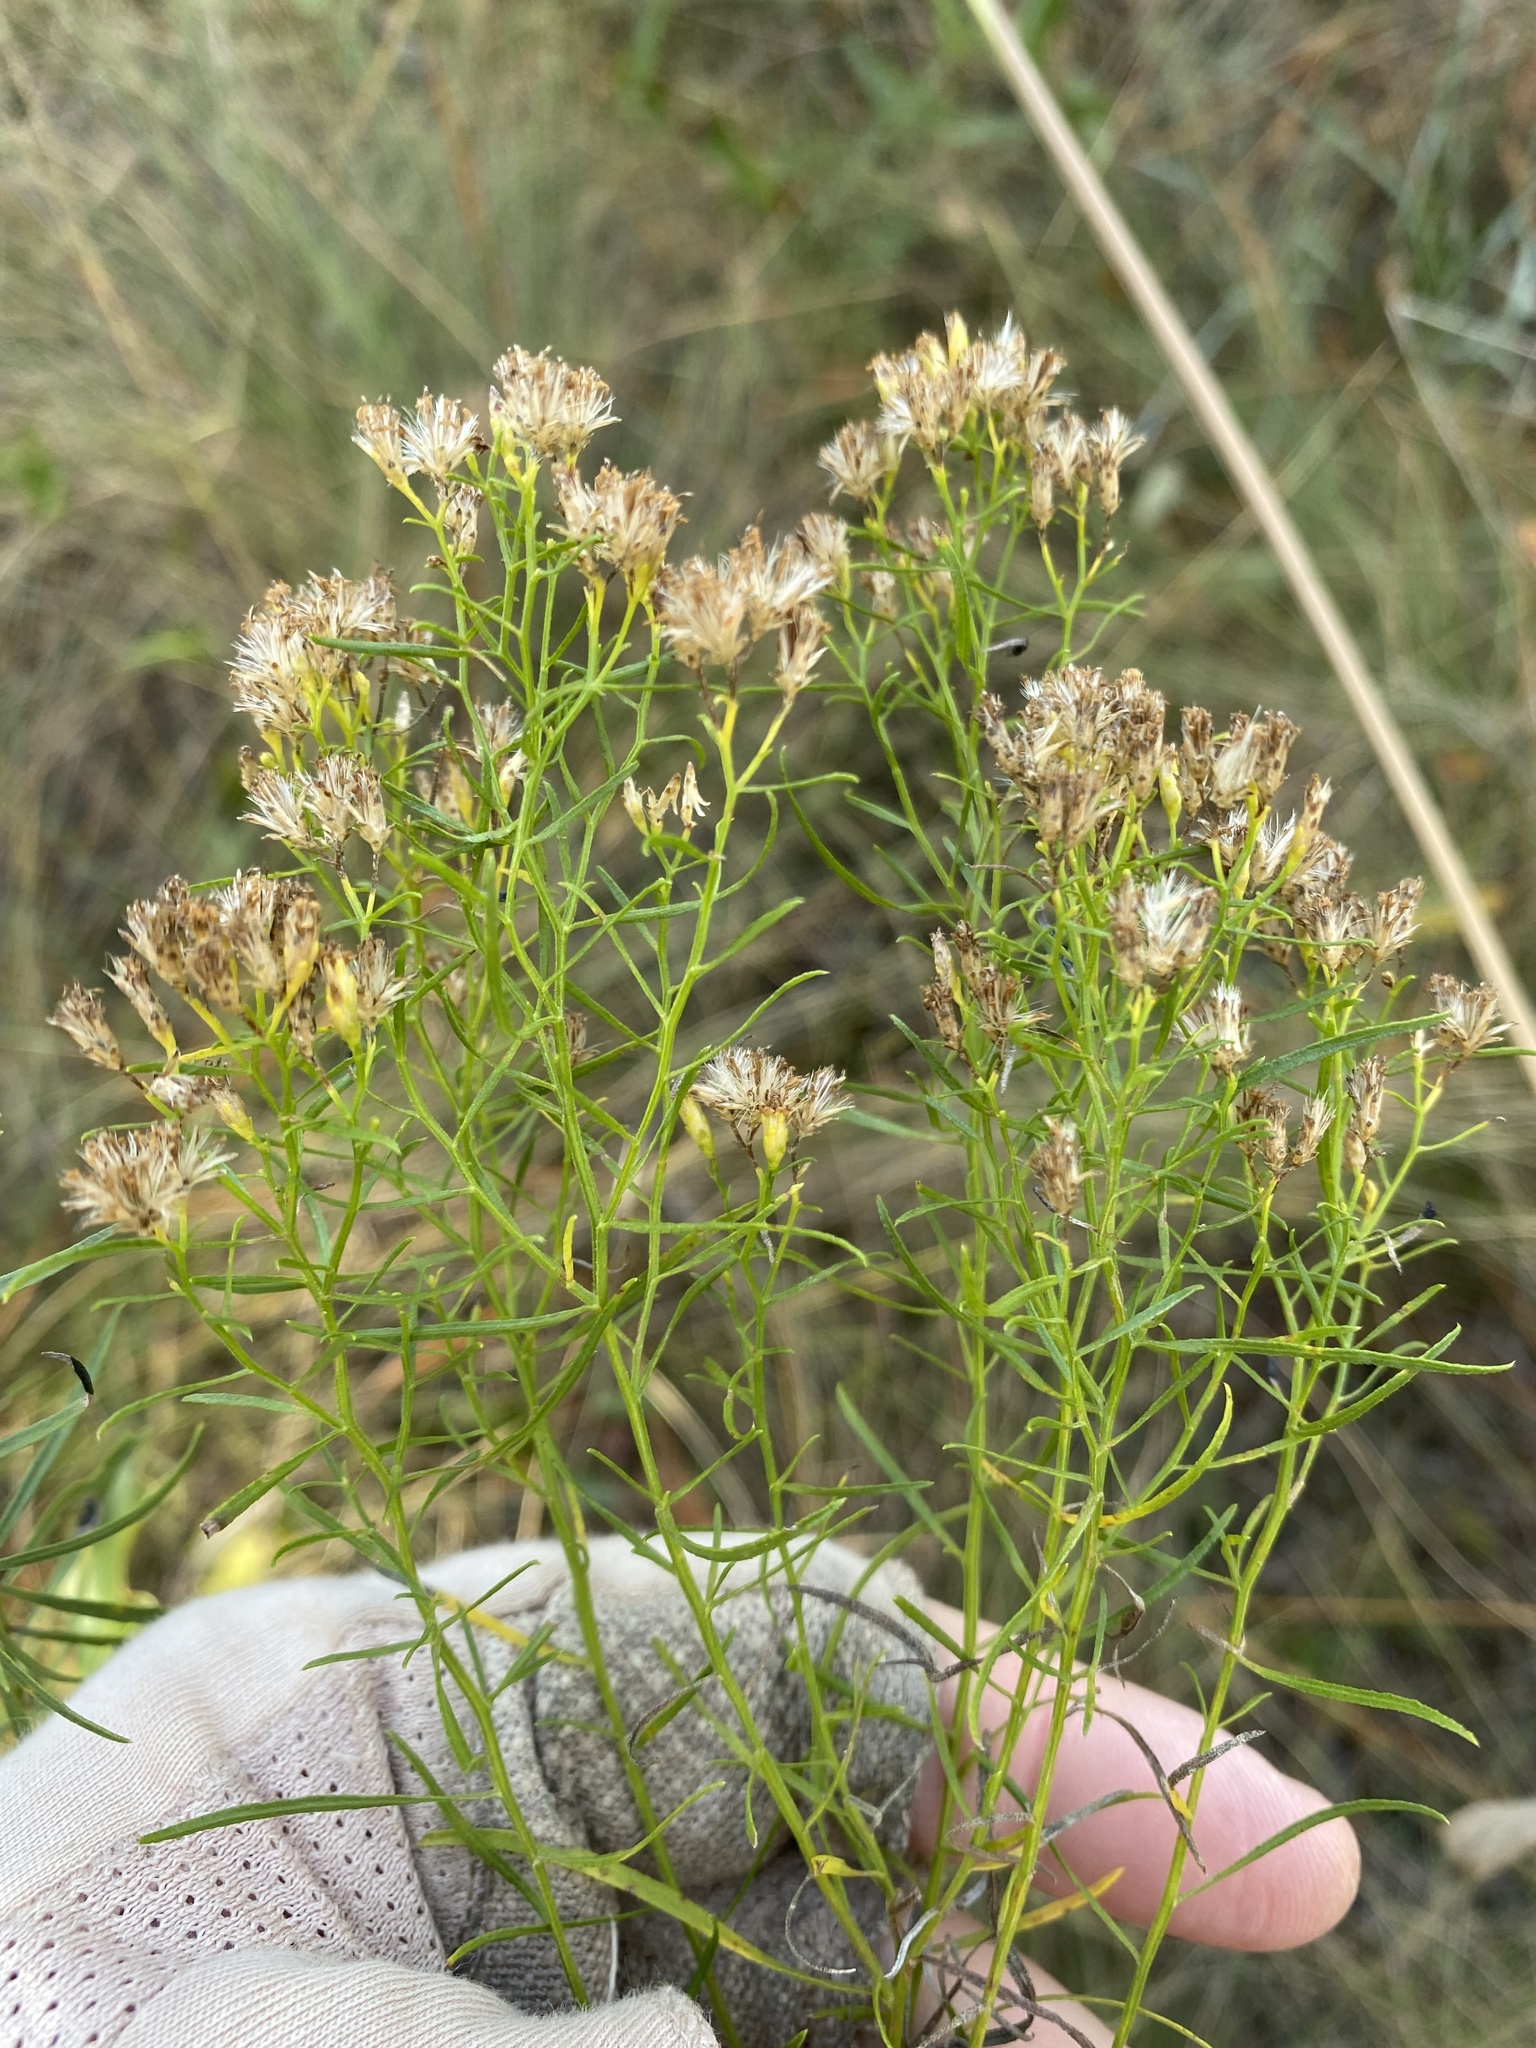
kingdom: Plantae
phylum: Tracheophyta
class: Magnoliopsida
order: Asterales
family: Asteraceae
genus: Euthamia
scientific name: Euthamia caroliniana
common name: Coastal plain goldentop
